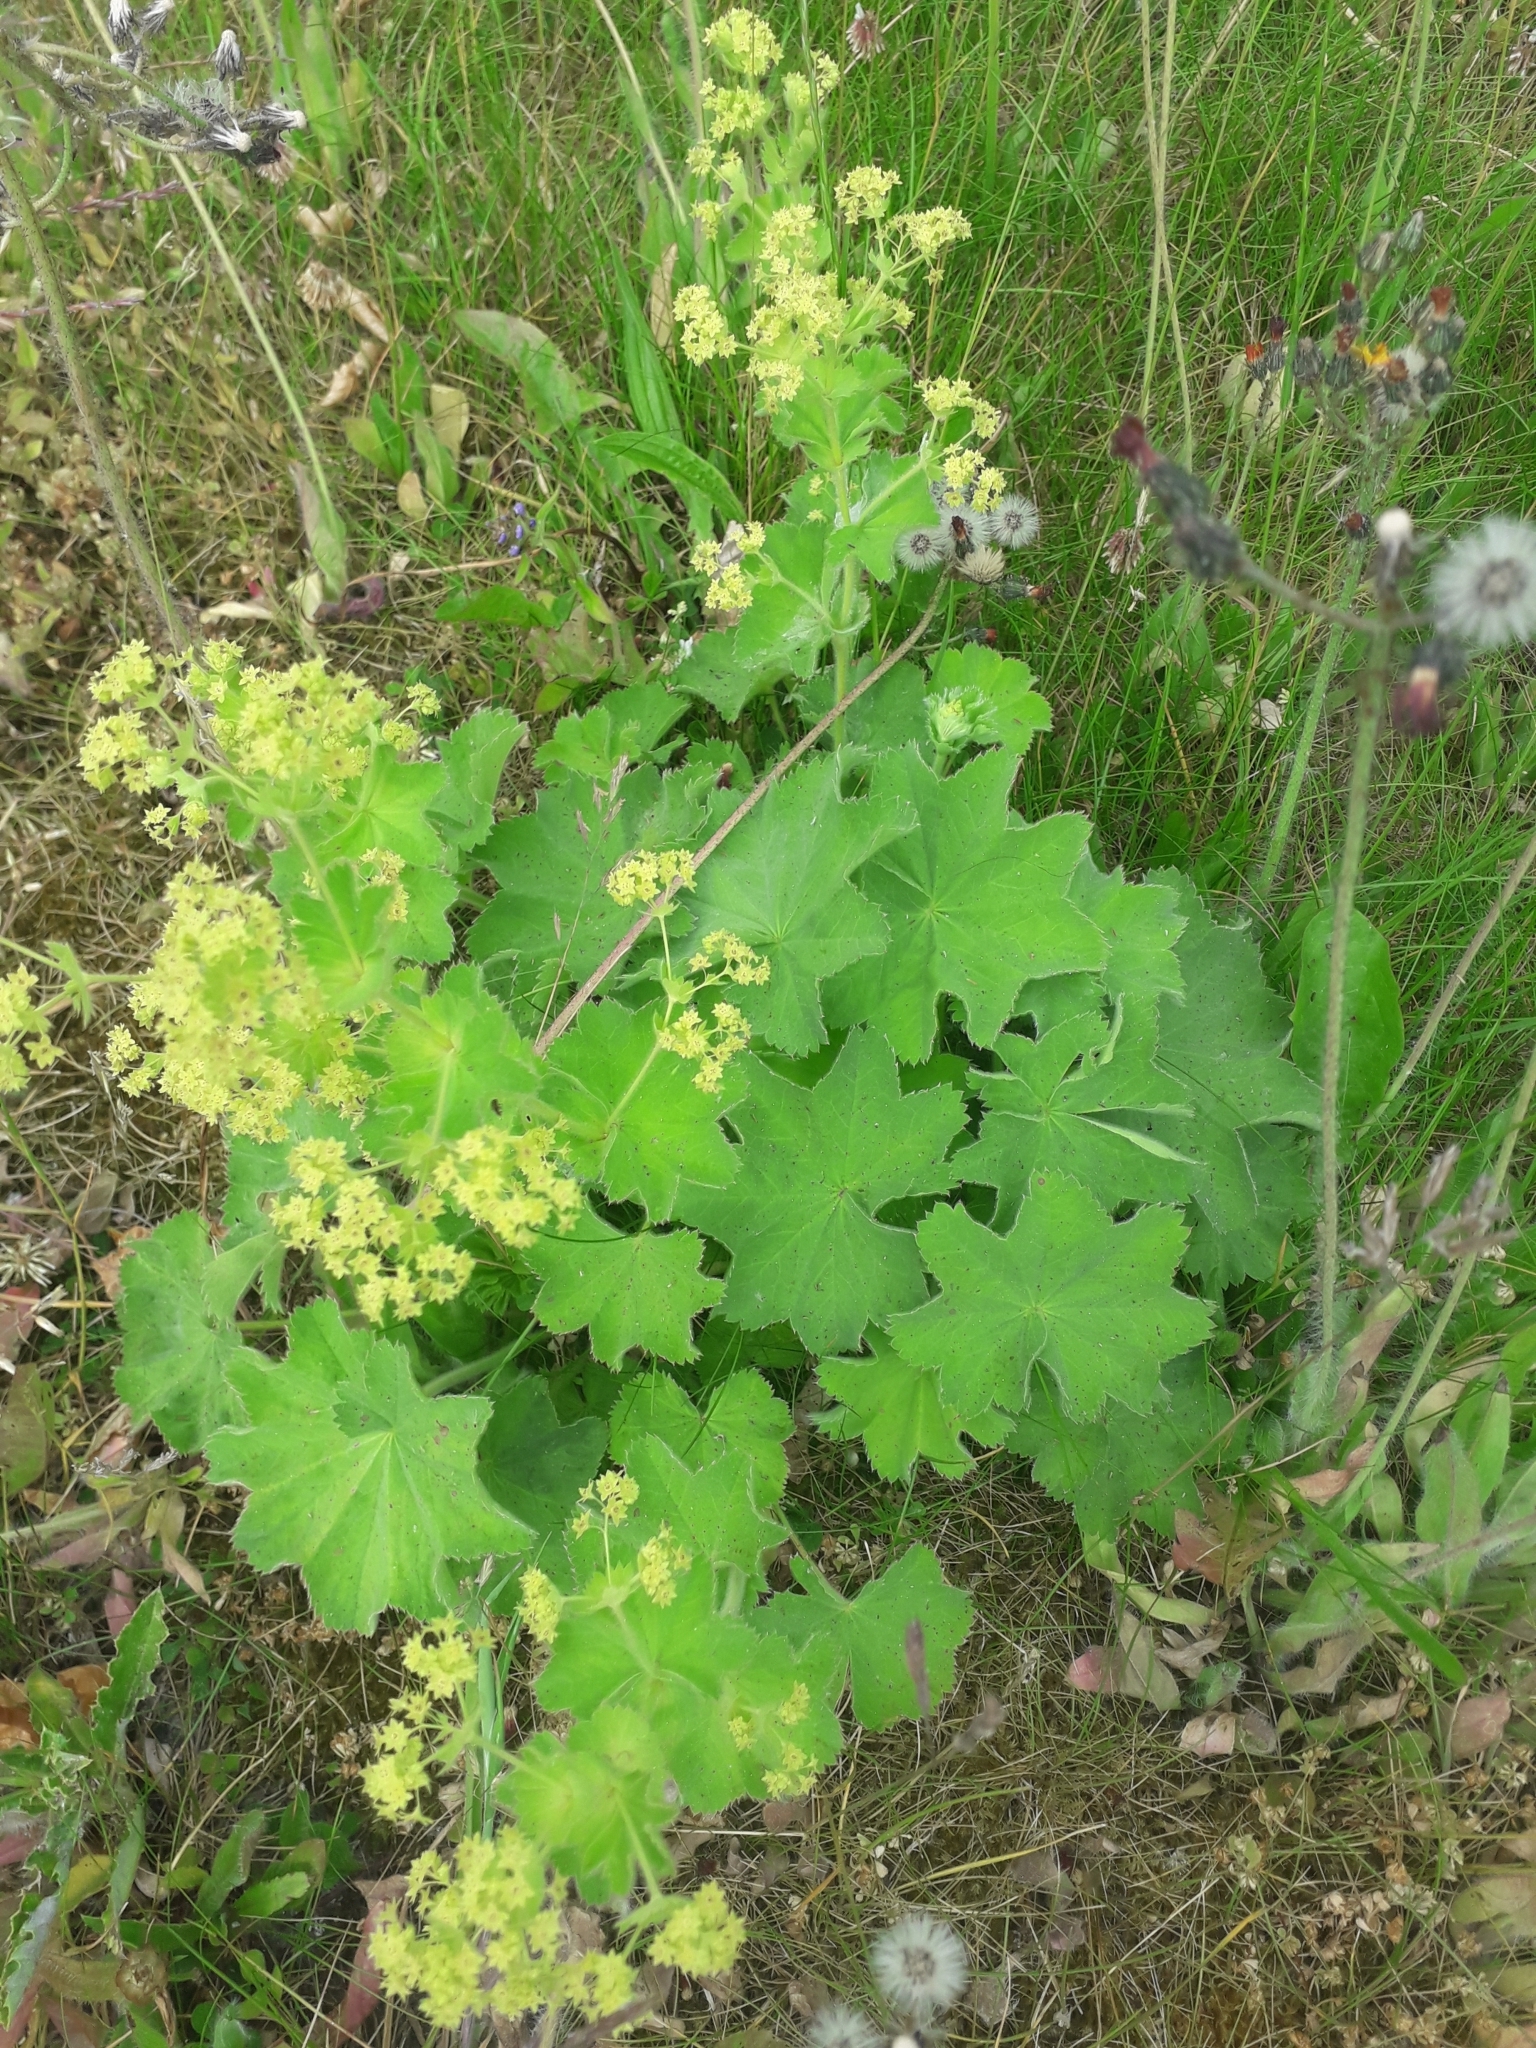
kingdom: Plantae
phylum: Tracheophyta
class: Magnoliopsida
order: Rosales
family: Rosaceae
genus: Alchemilla
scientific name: Alchemilla mollis
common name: Lady's-mantle
